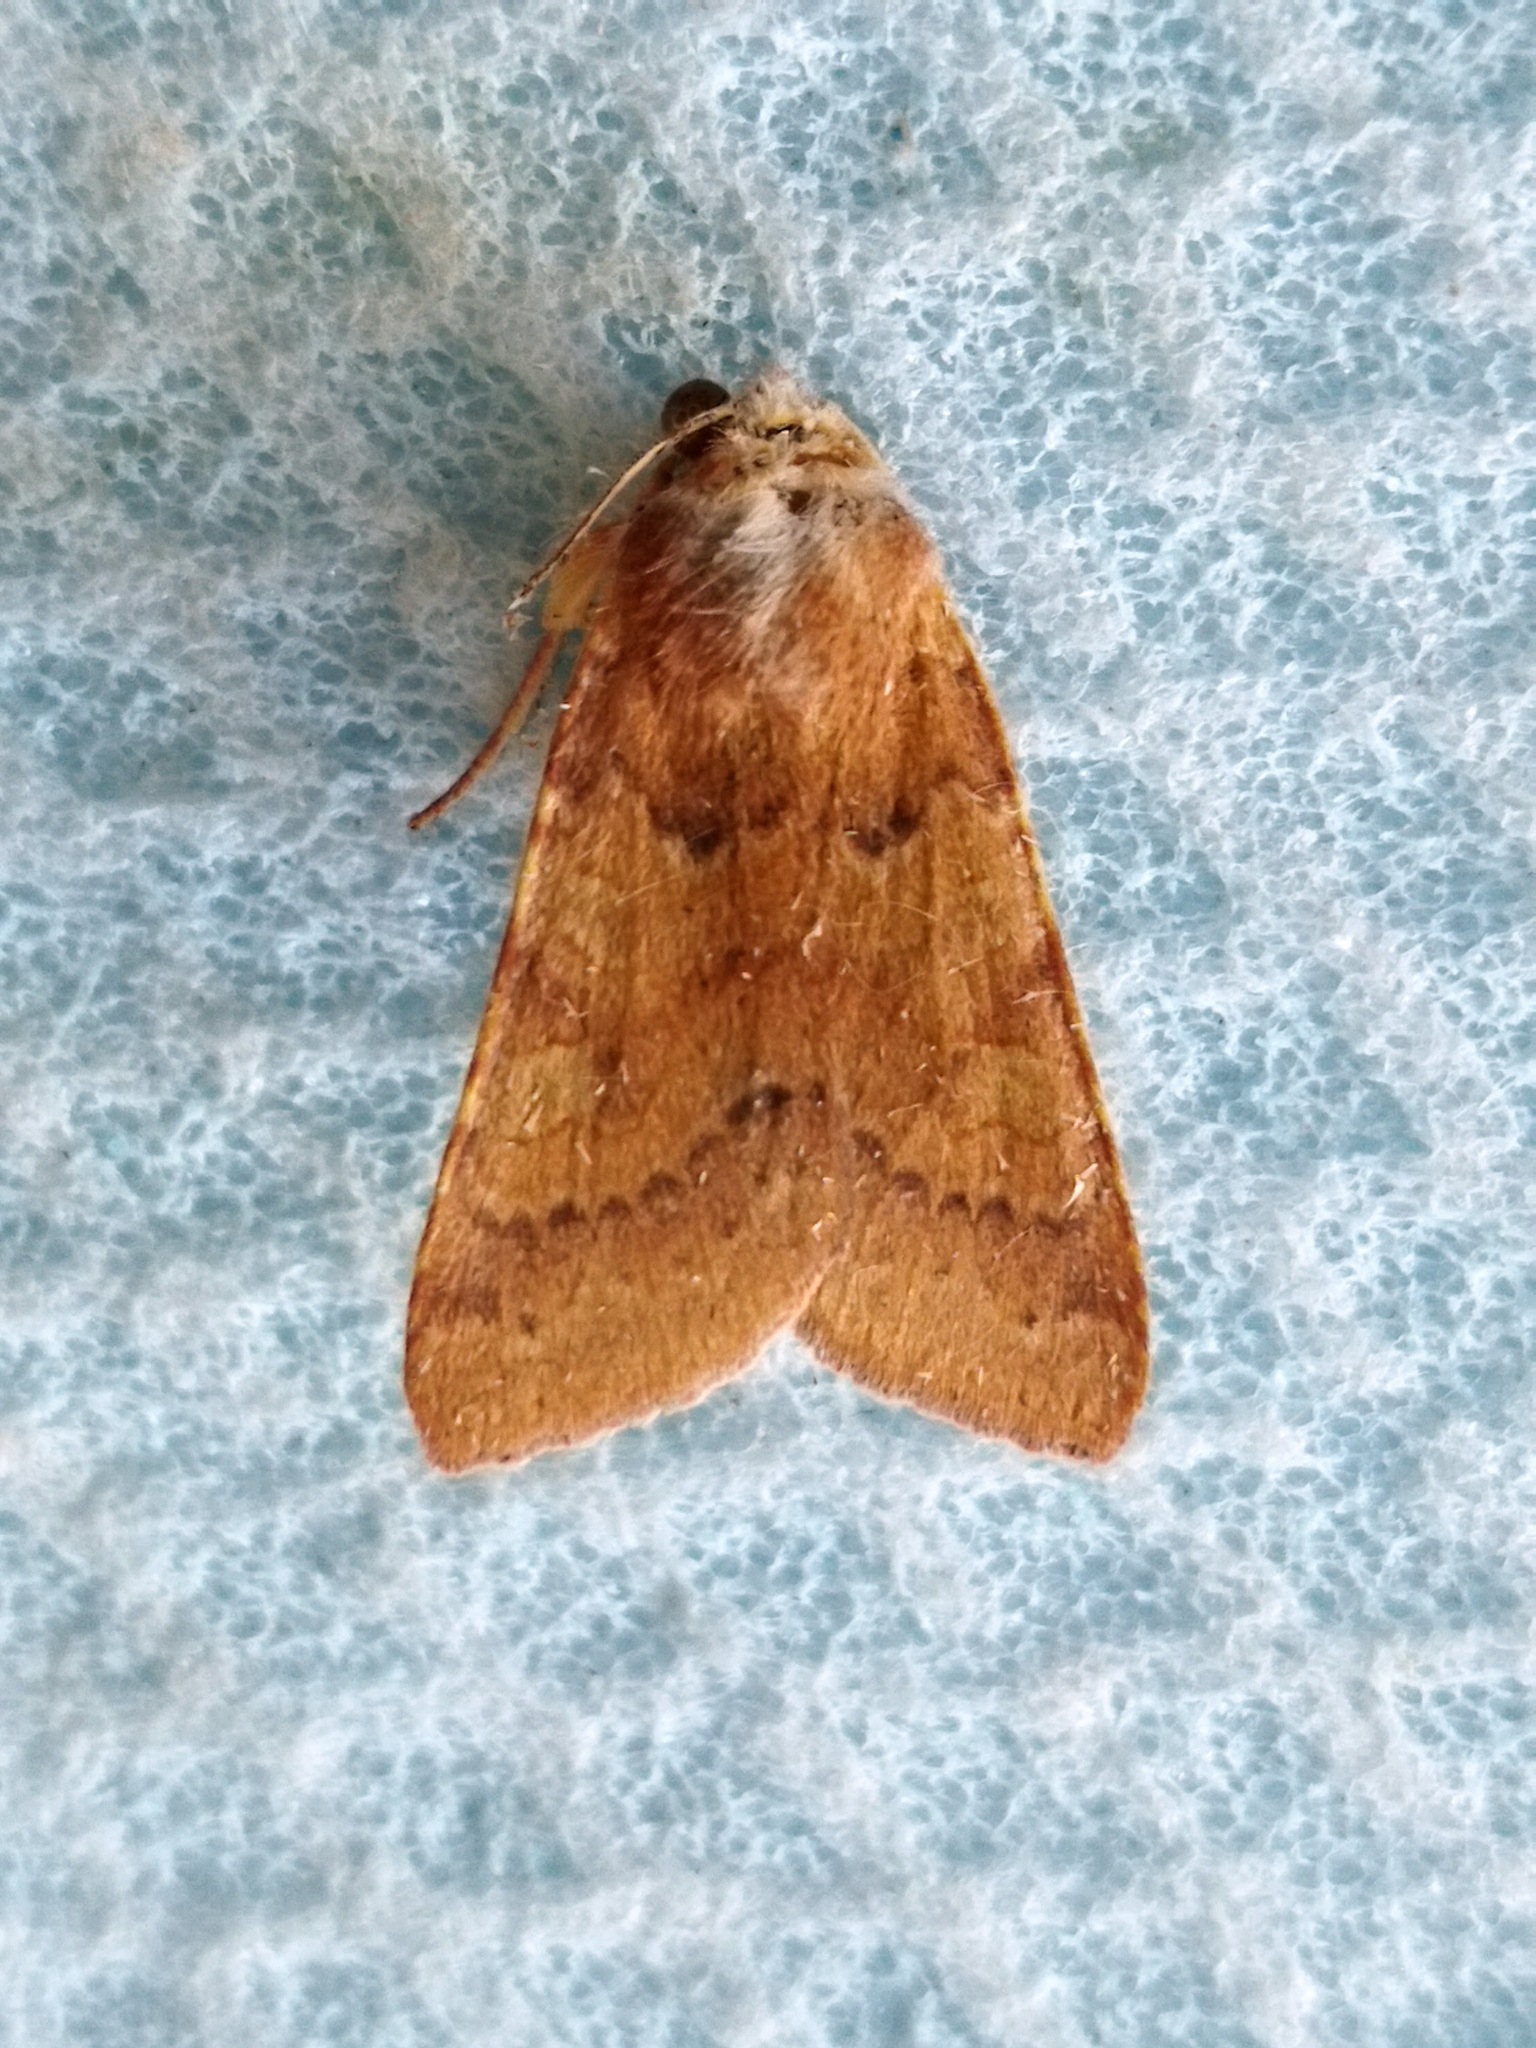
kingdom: Animalia
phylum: Arthropoda
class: Insecta
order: Lepidoptera
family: Noctuidae
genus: Agrochola
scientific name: Agrochola helvola
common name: Flounced chestnut
